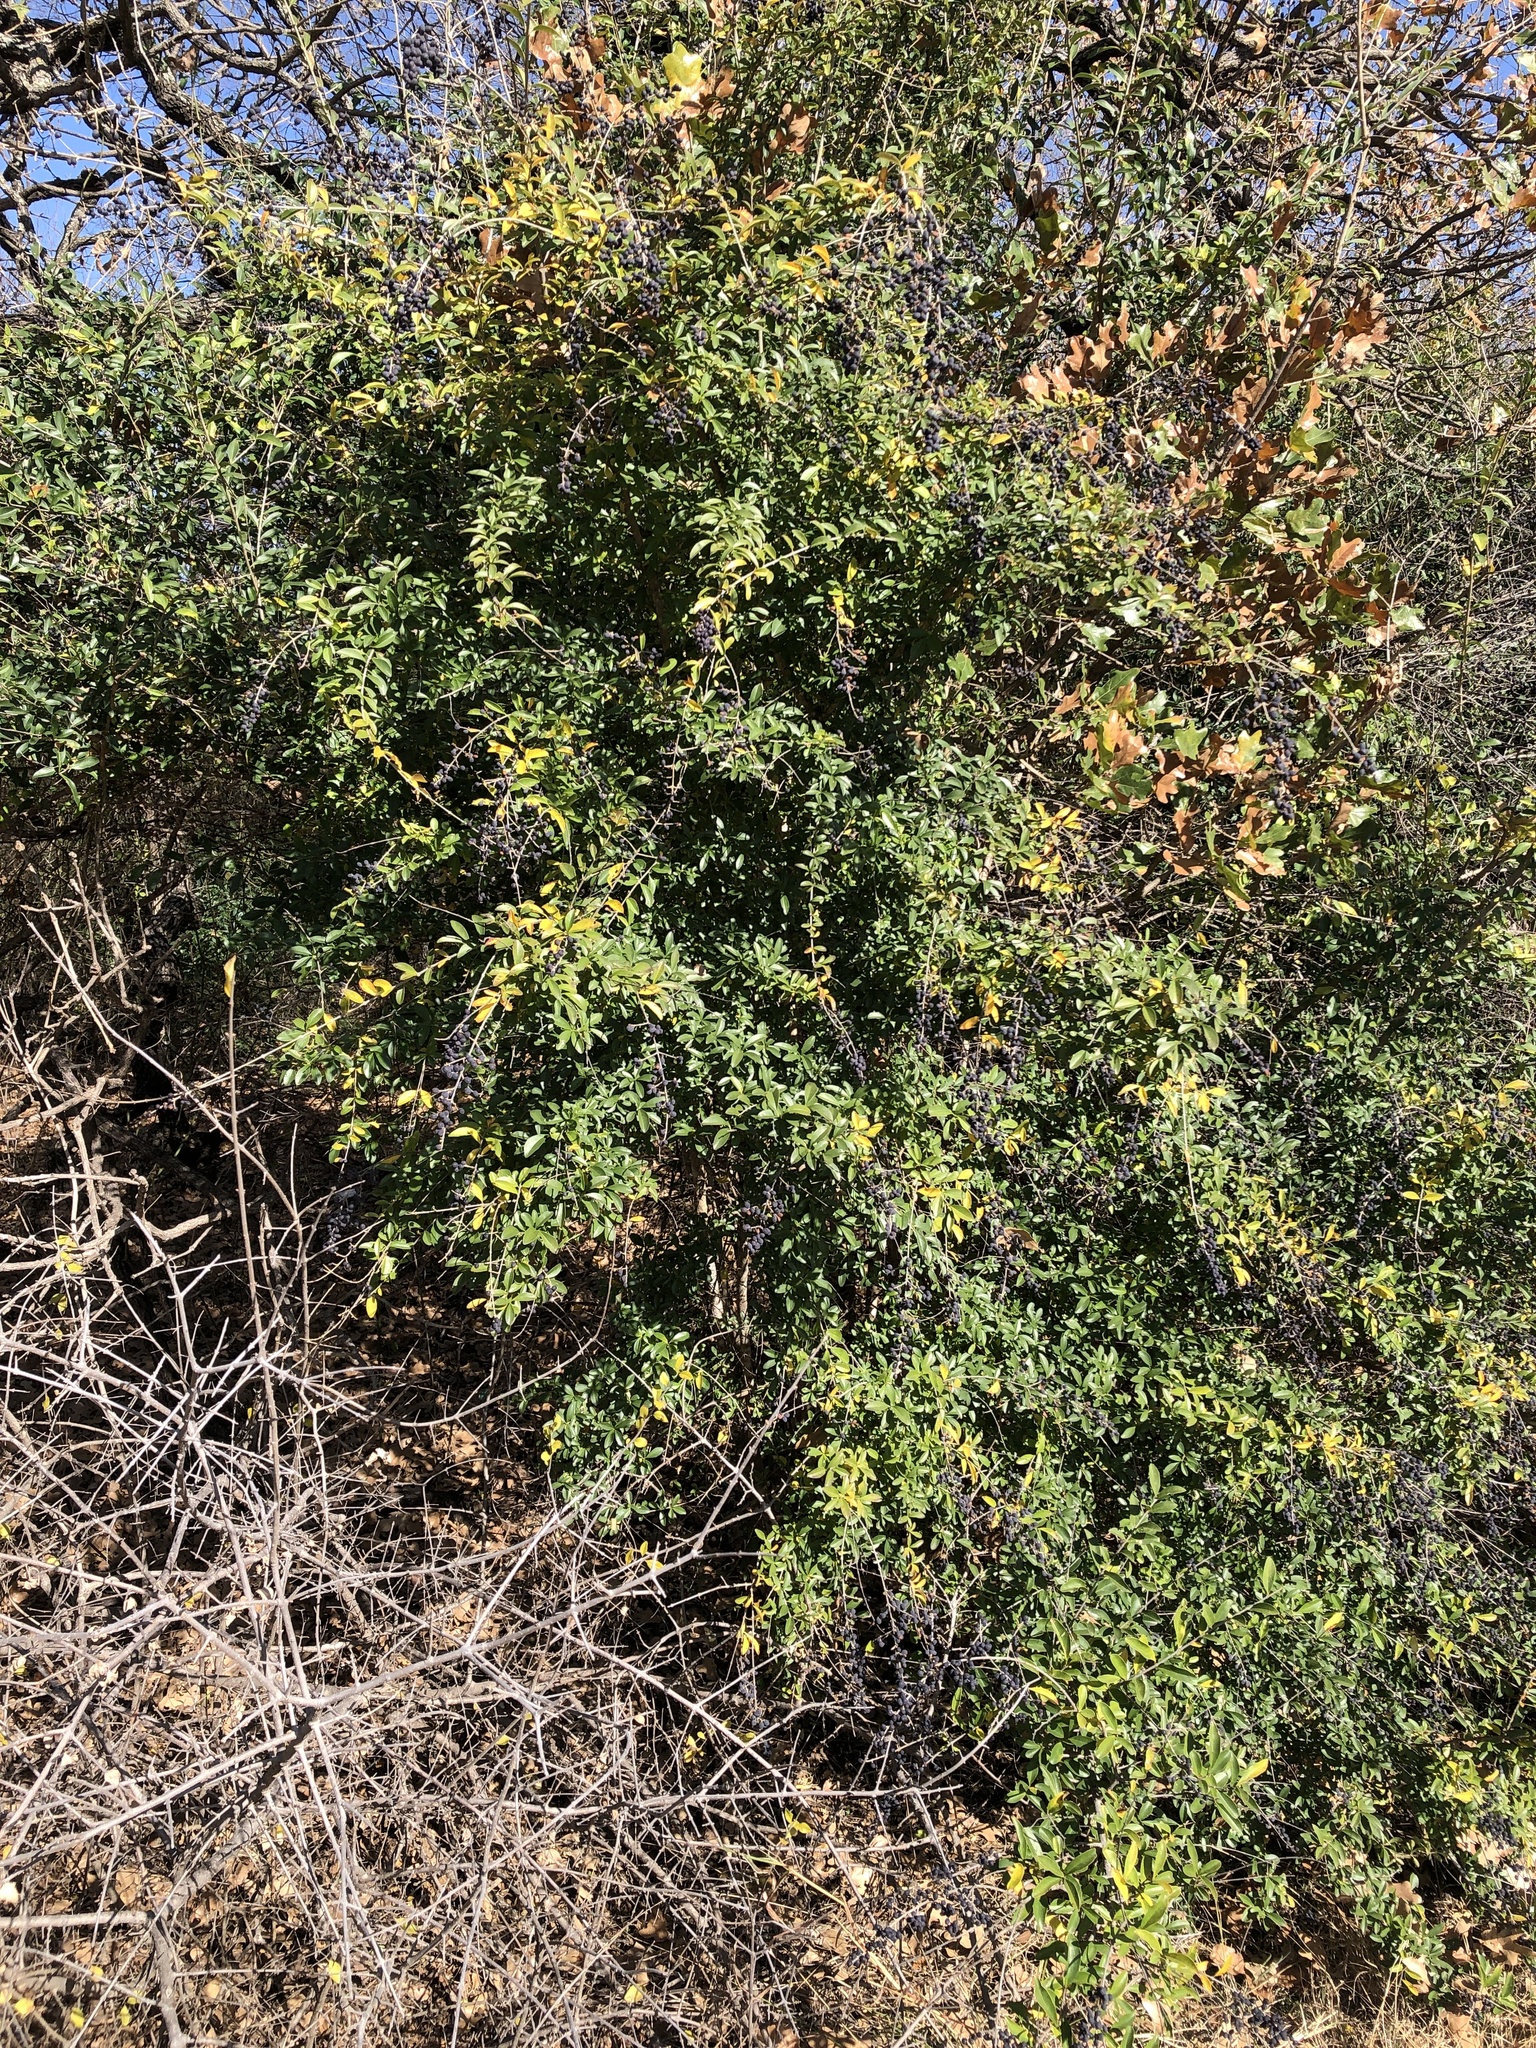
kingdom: Plantae
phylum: Tracheophyta
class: Magnoliopsida
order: Lamiales
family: Oleaceae
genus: Ligustrum
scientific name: Ligustrum quihoui
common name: Waxyleaf privet
